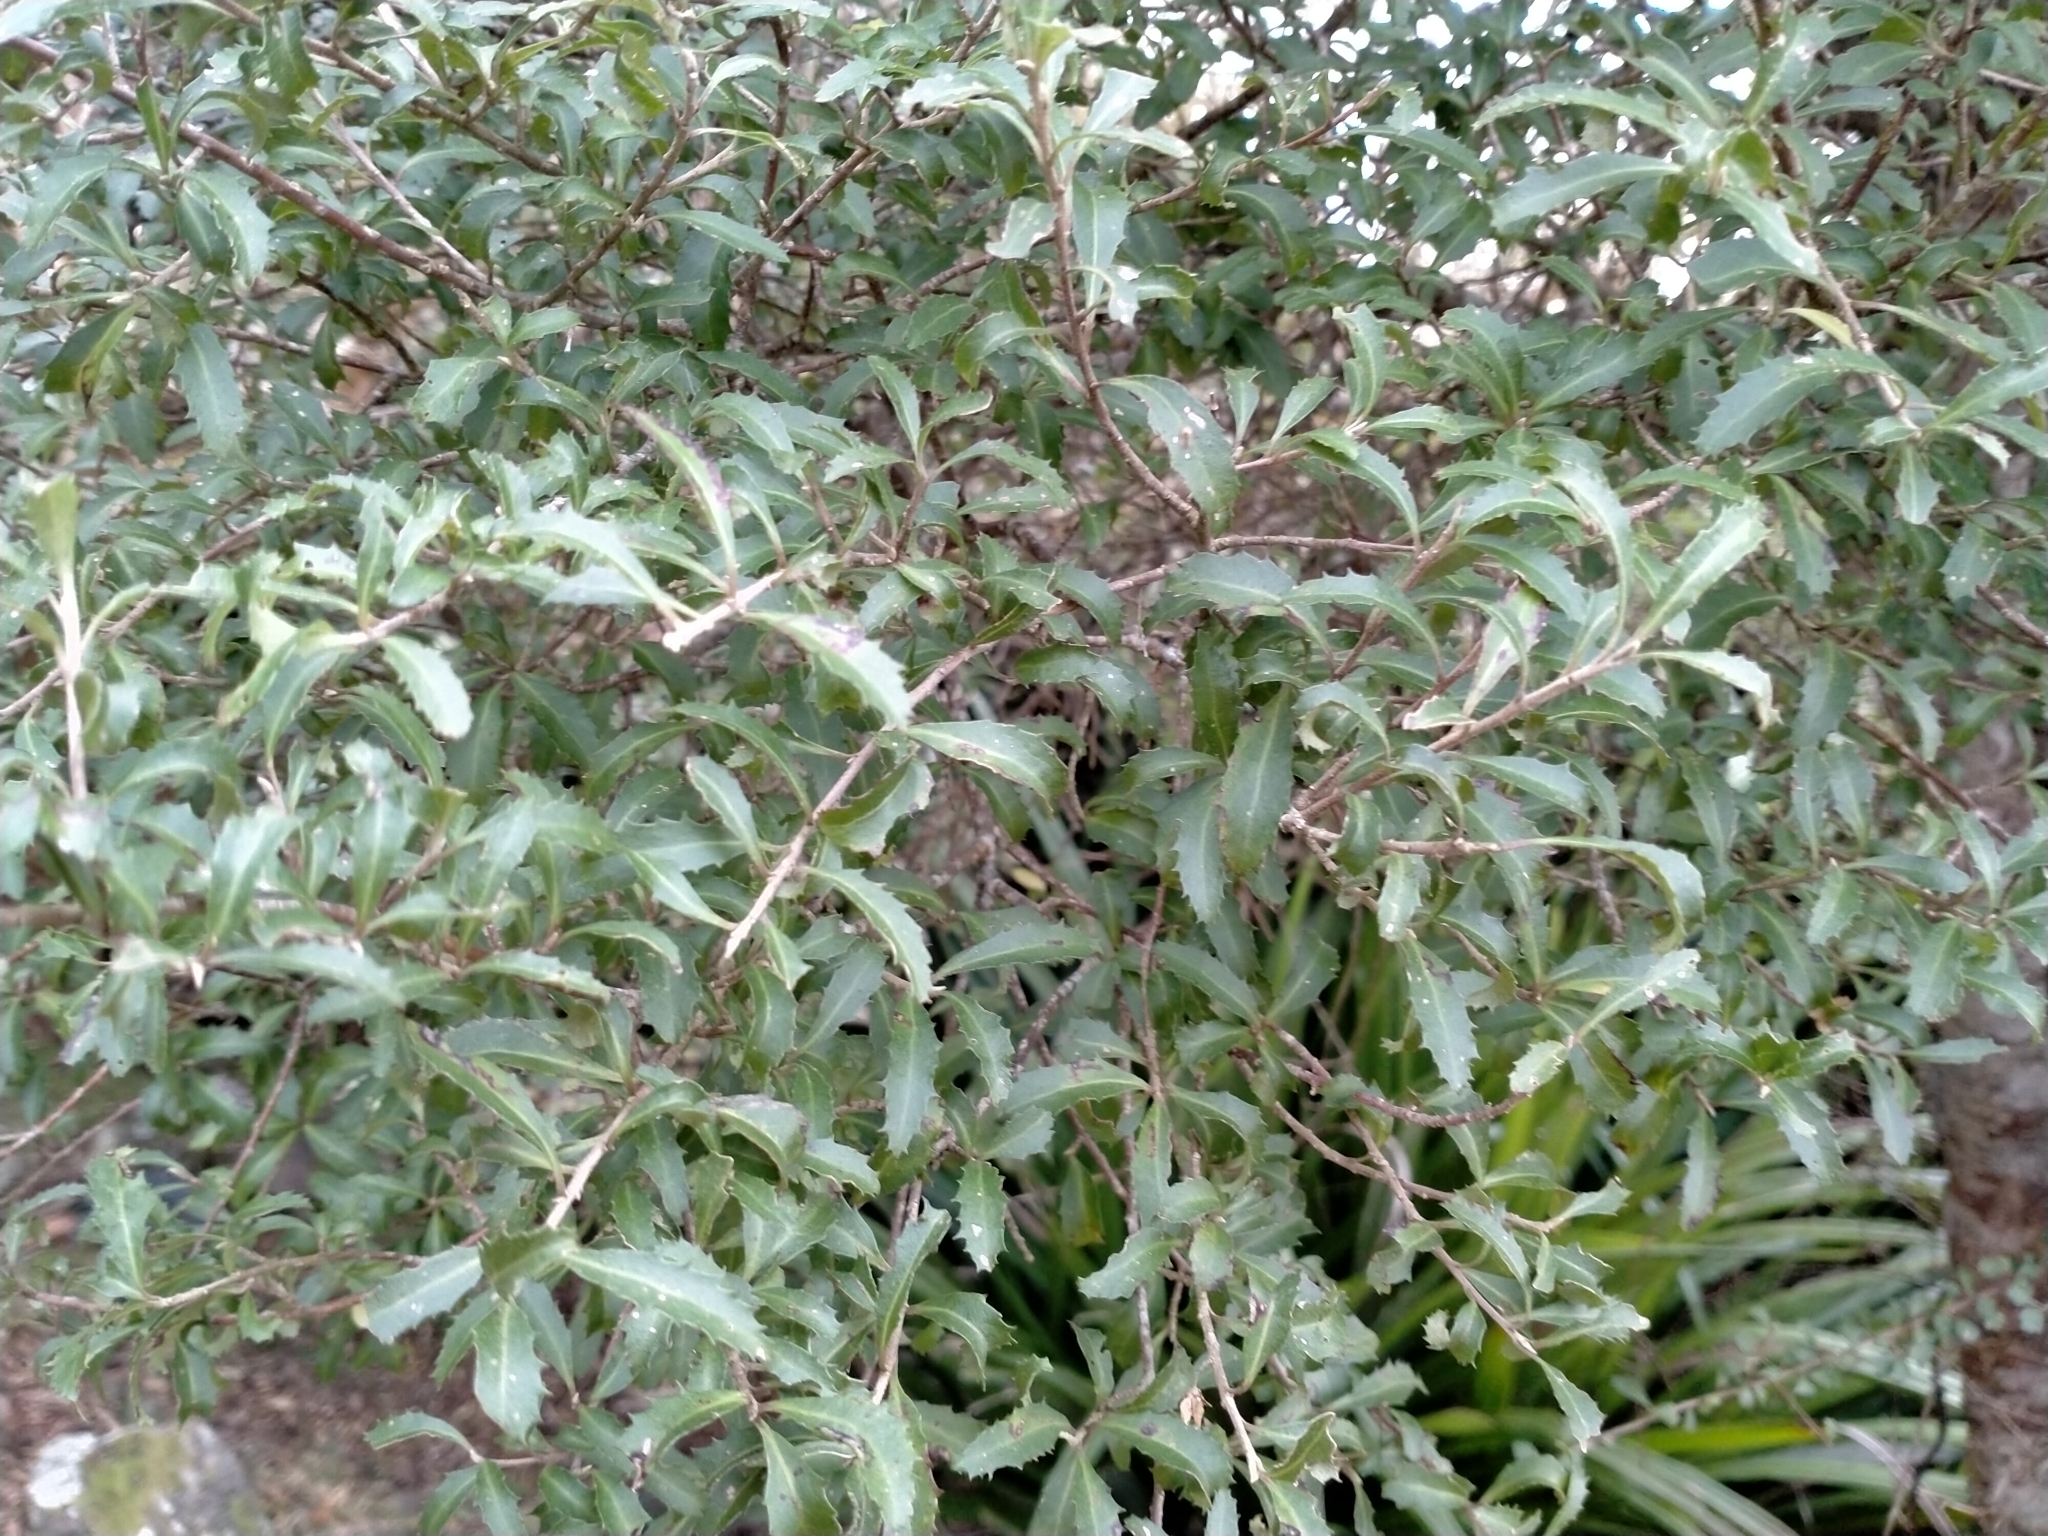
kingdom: Plantae
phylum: Tracheophyta
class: Magnoliopsida
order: Malvales
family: Malvaceae
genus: Hoheria
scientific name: Hoheria angustifolia
